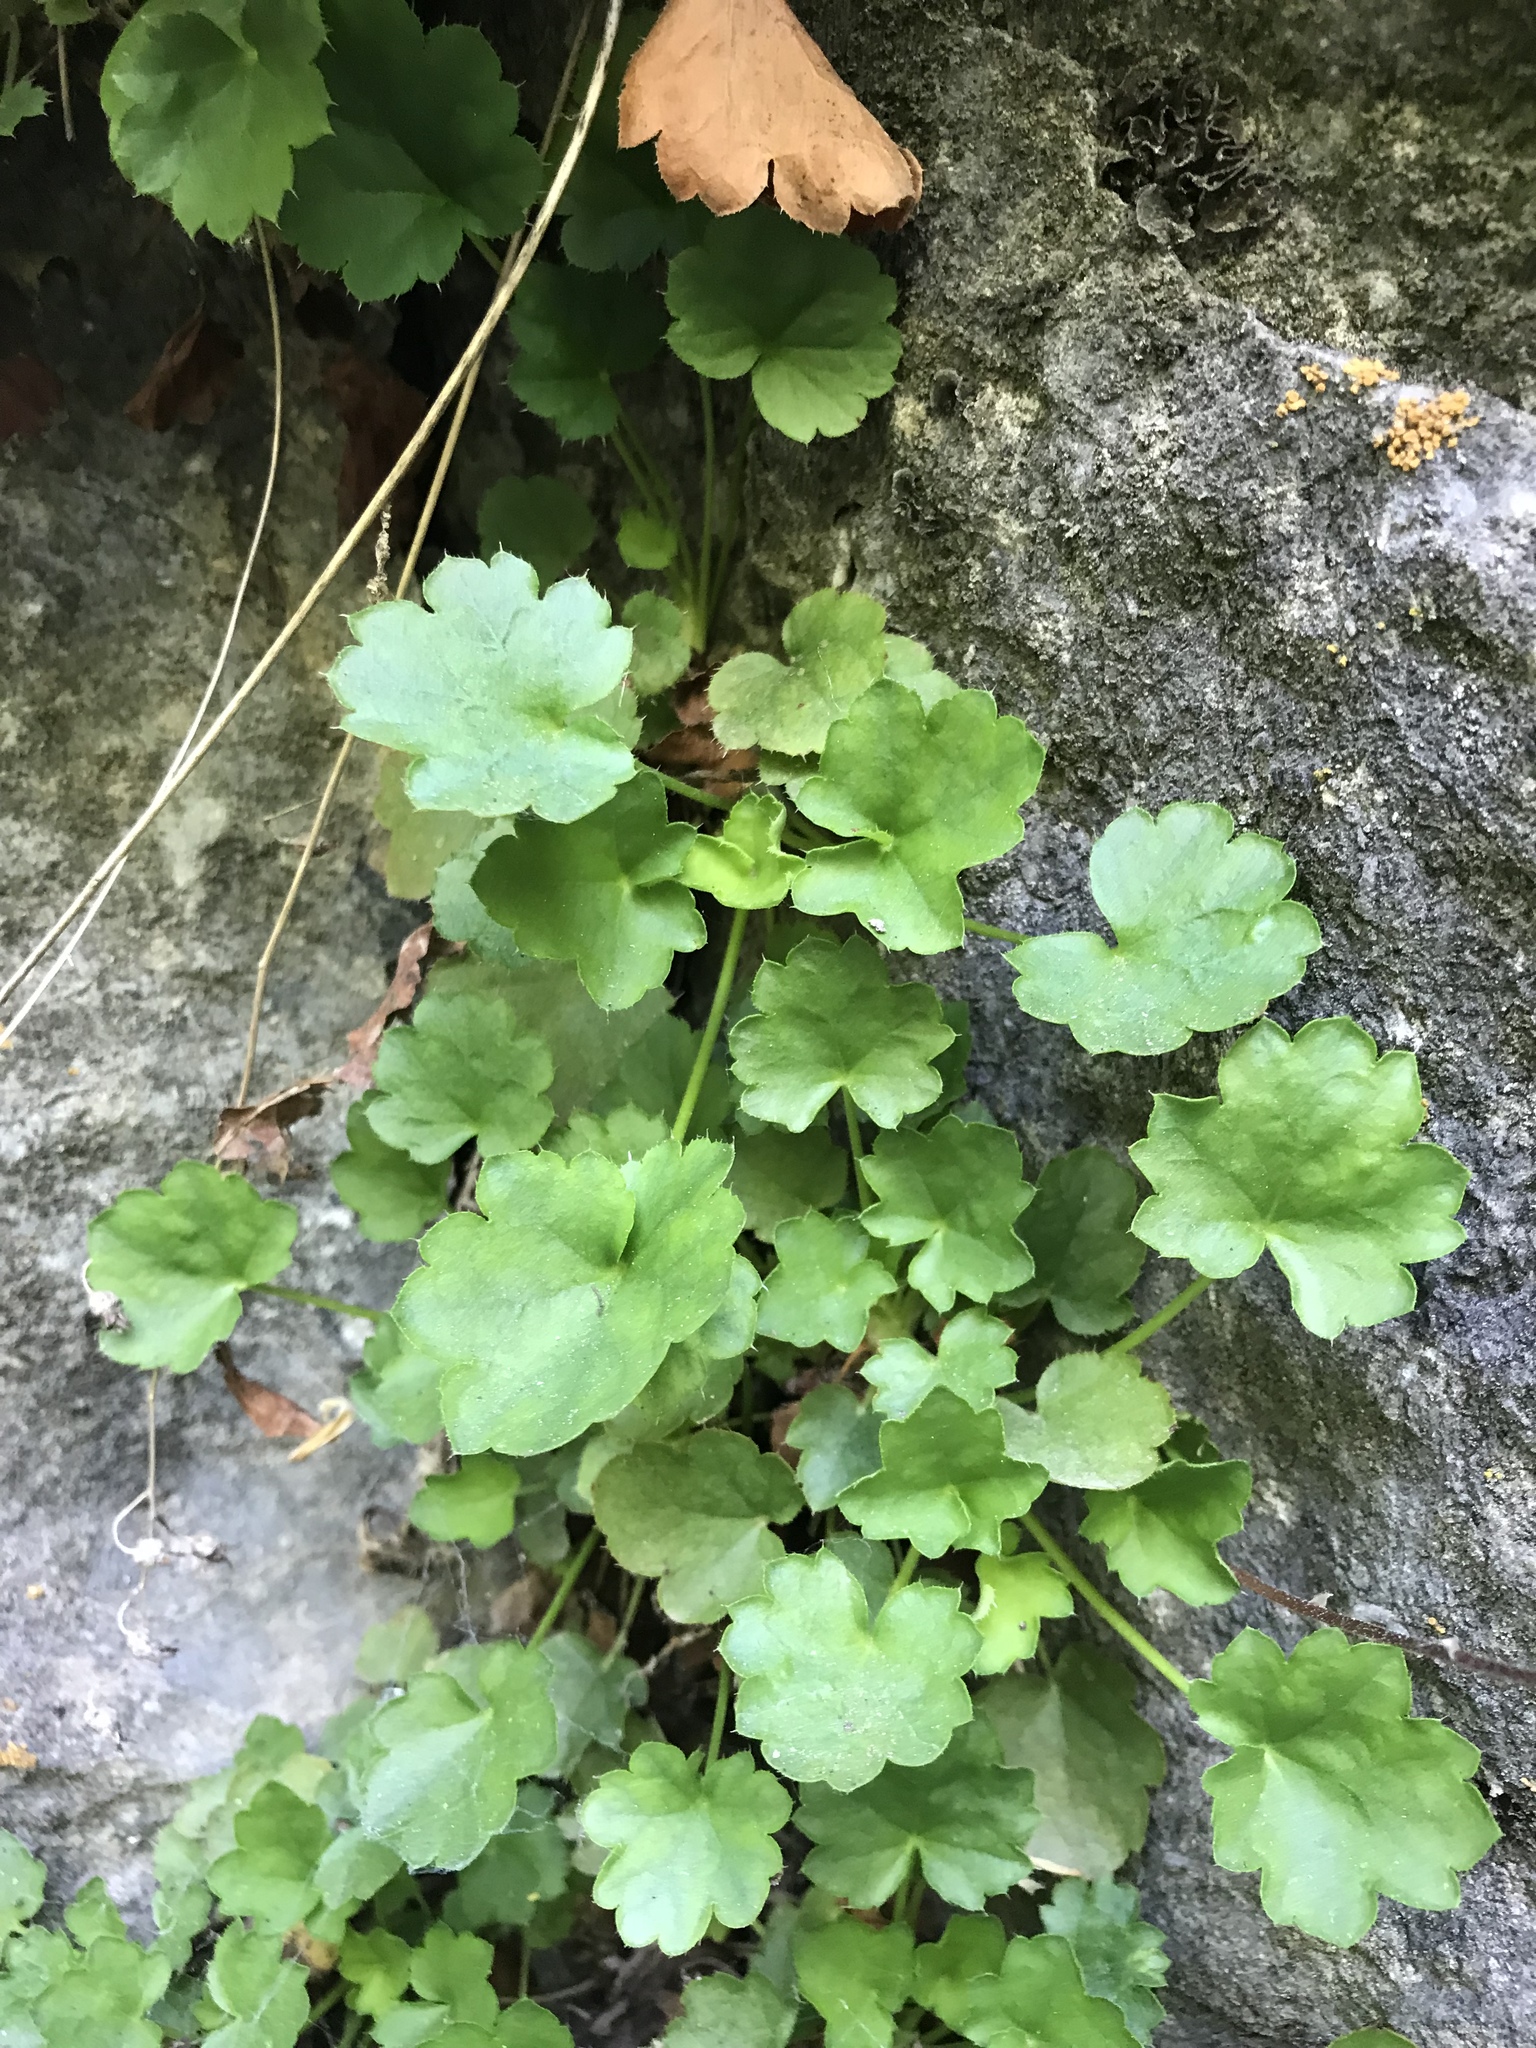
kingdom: Plantae
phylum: Tracheophyta
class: Magnoliopsida
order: Saxifragales
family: Saxifragaceae
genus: Heuchera
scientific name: Heuchera rubescens
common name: Jack-o'the-rocks
